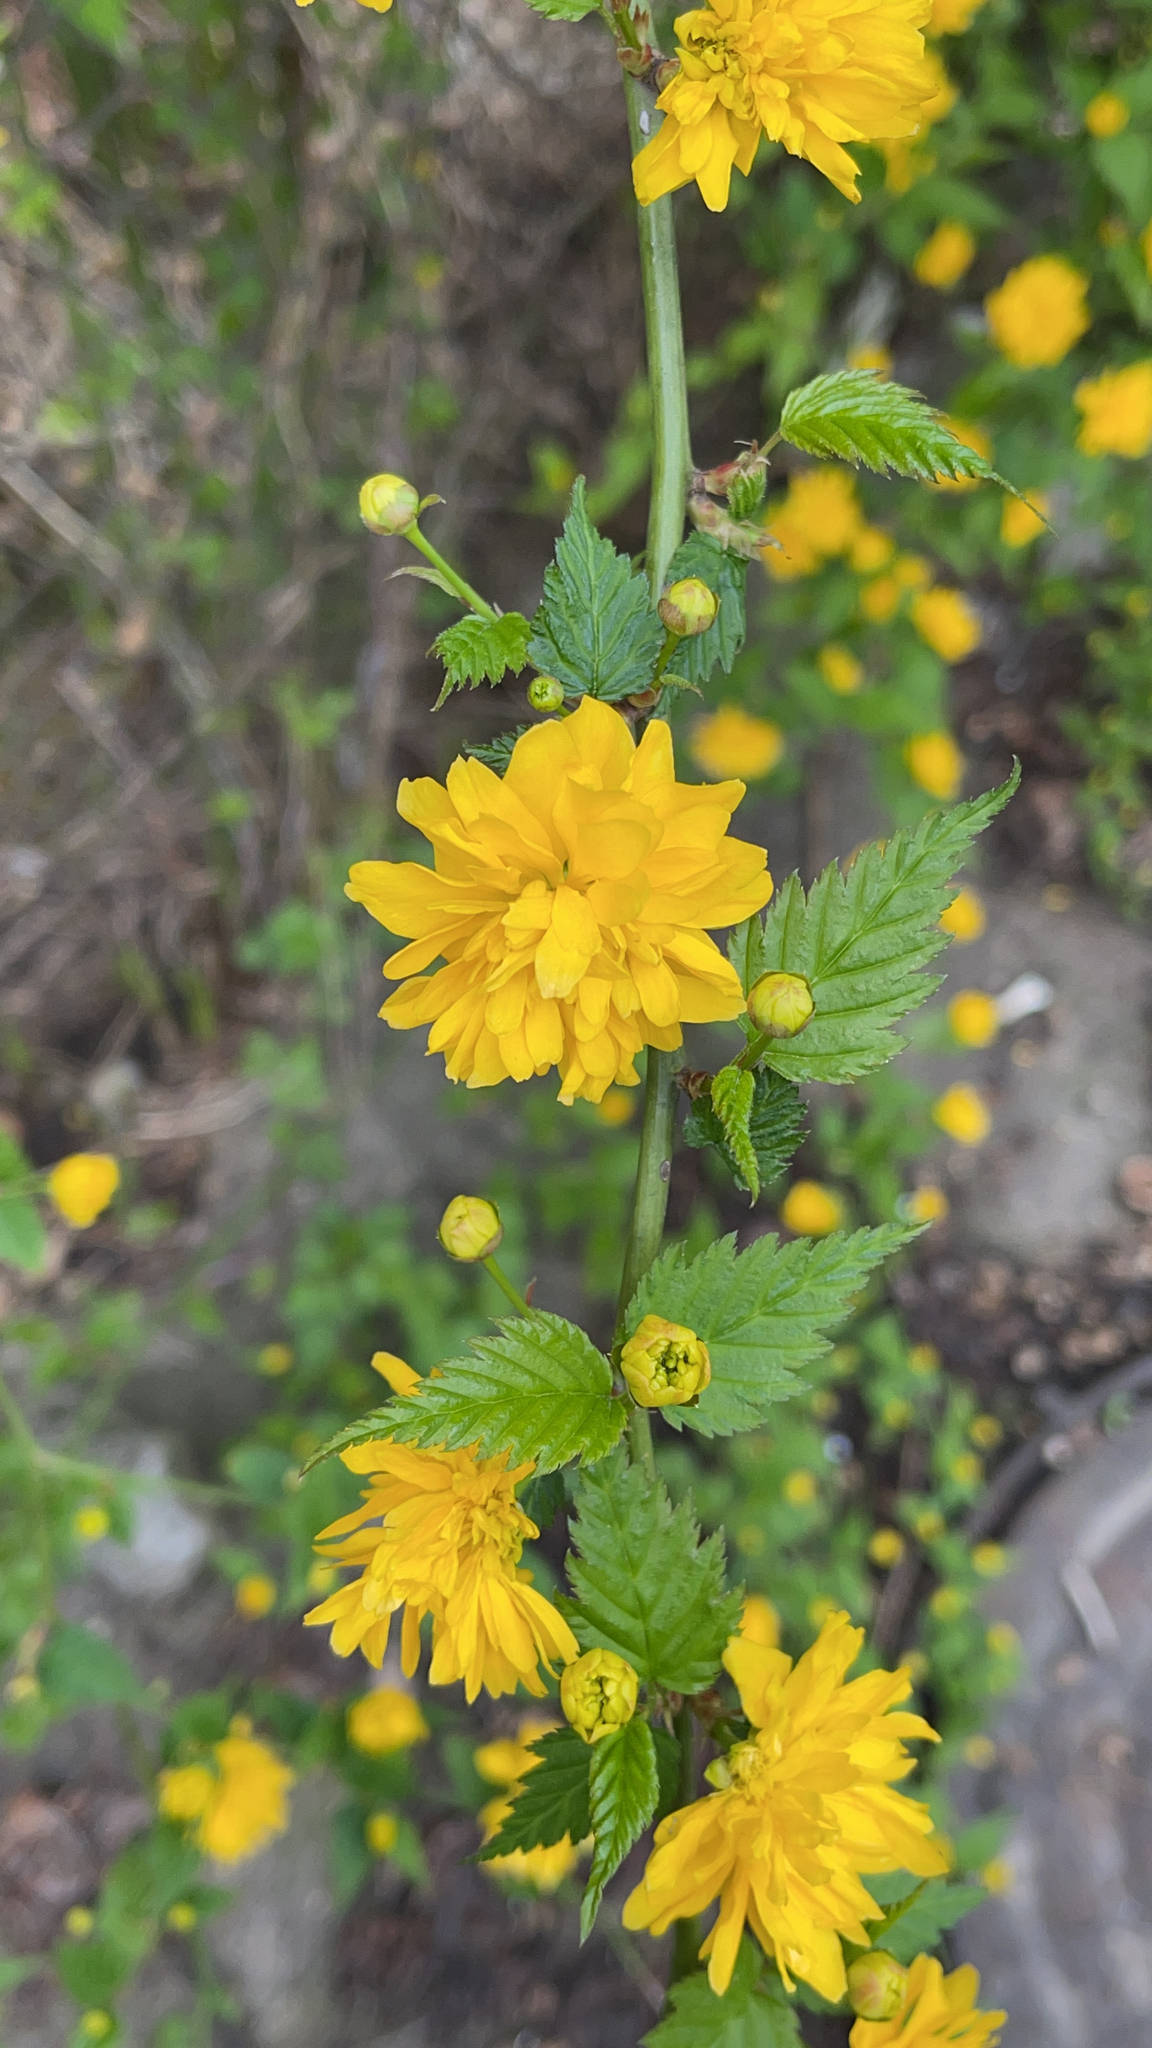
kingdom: Plantae
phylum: Tracheophyta
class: Magnoliopsida
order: Rosales
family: Rosaceae
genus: Kerria
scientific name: Kerria japonica
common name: Japanese kerria
